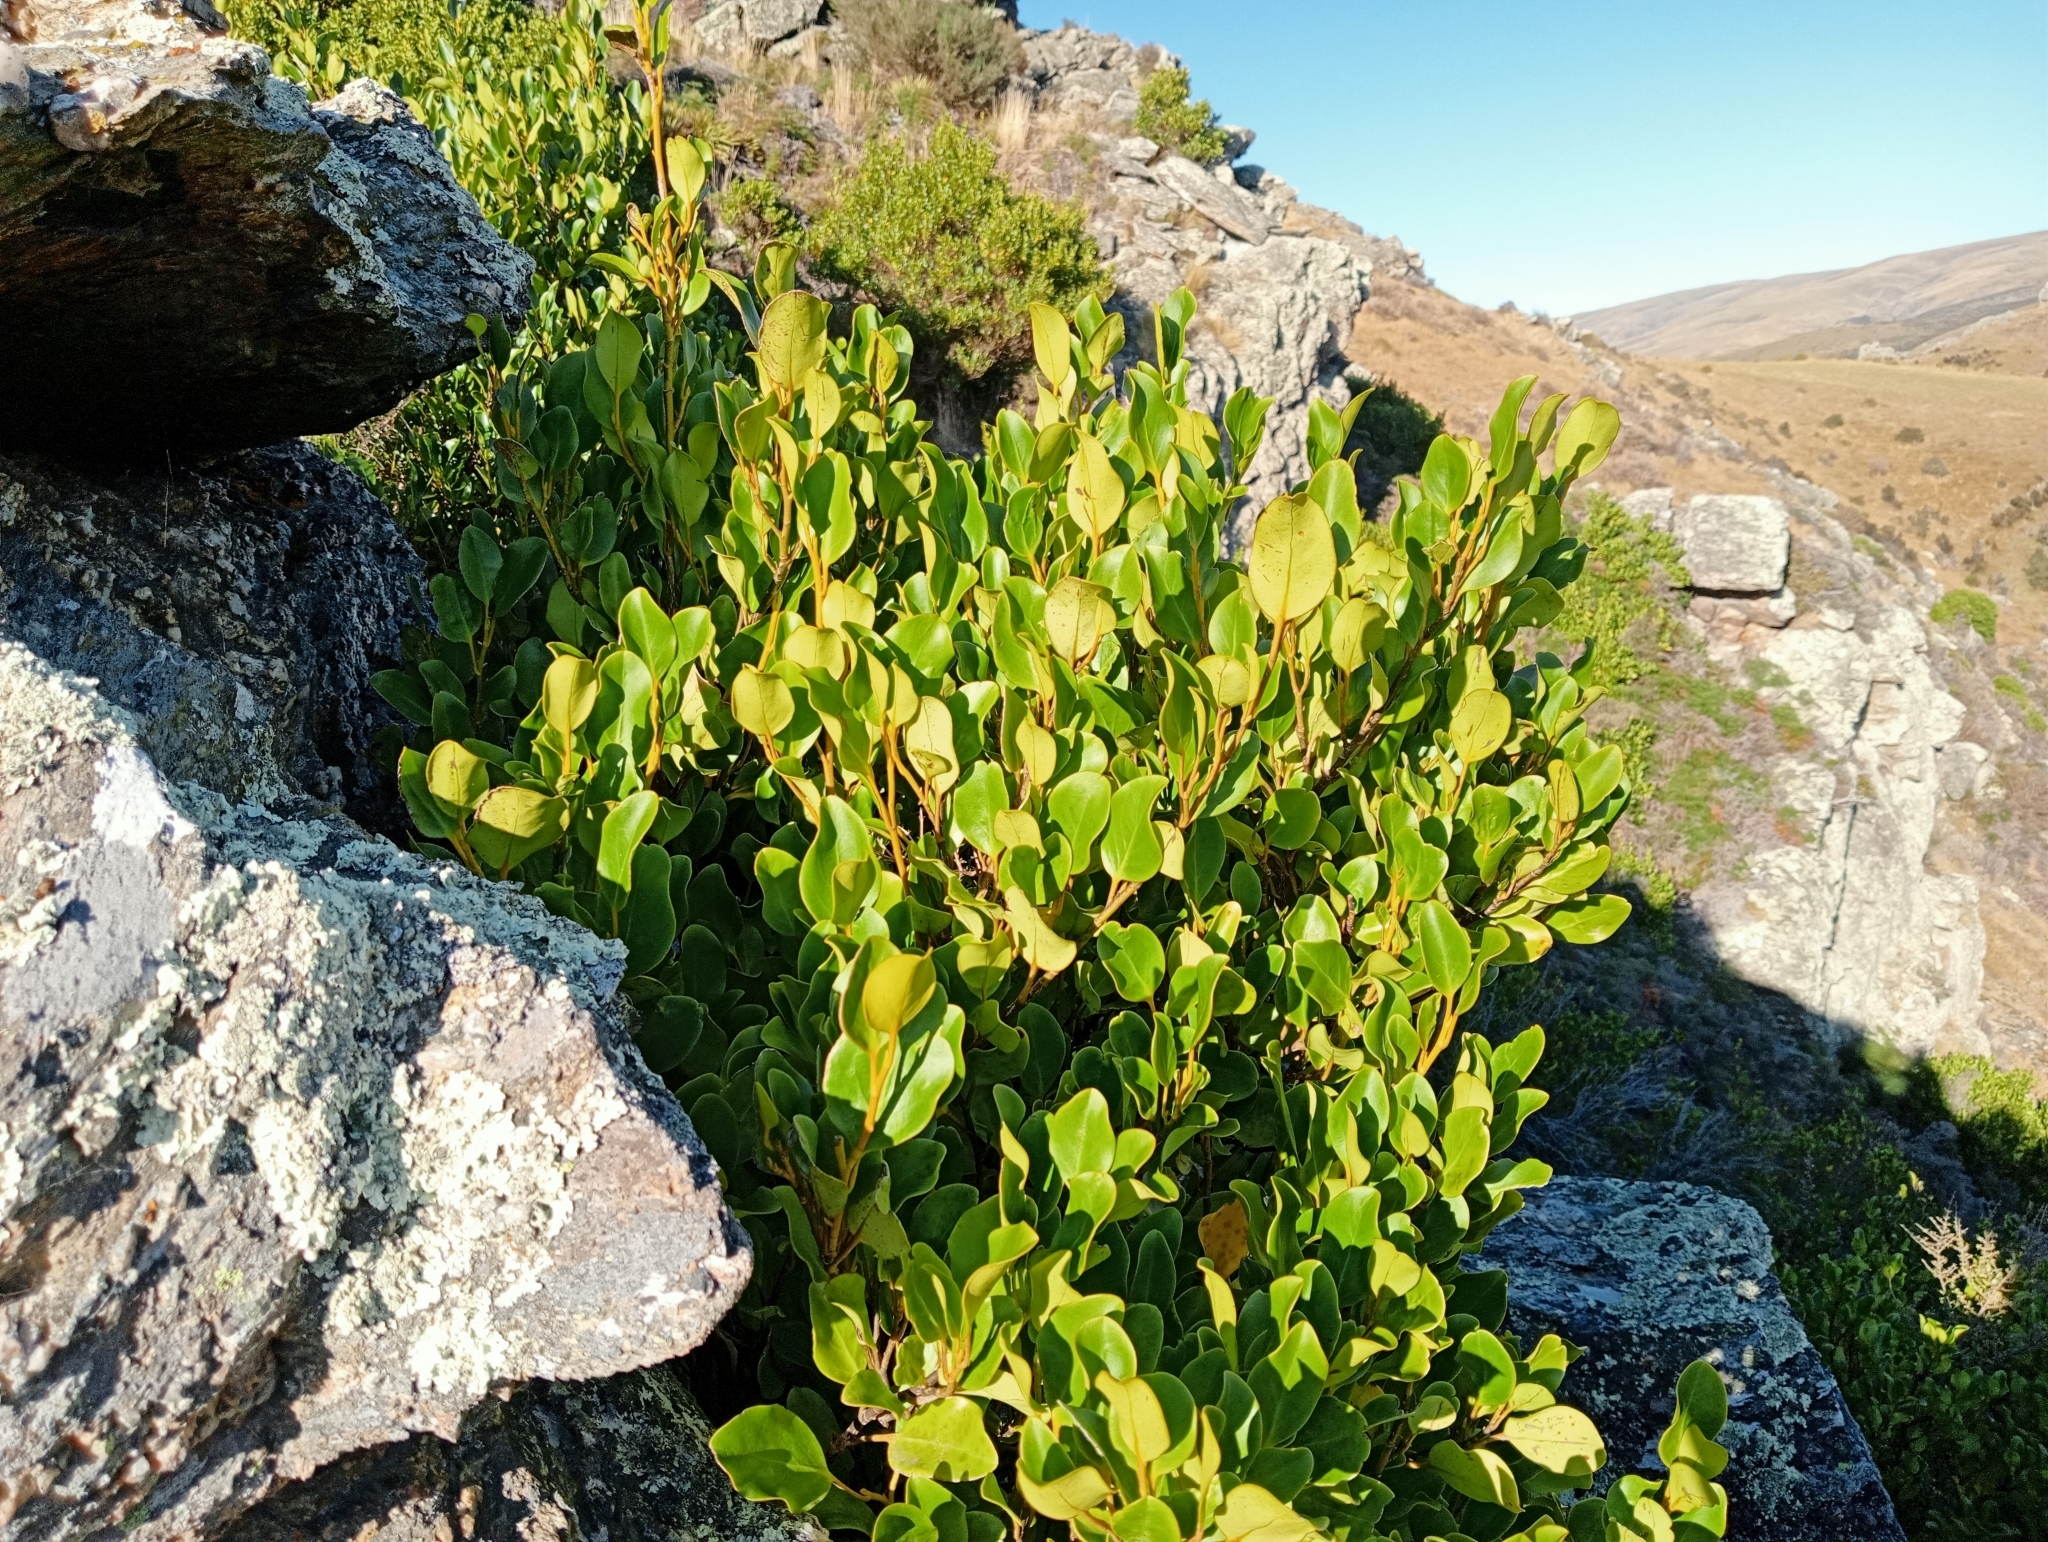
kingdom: Plantae
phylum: Tracheophyta
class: Magnoliopsida
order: Apiales
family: Griseliniaceae
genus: Griselinia
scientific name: Griselinia littoralis
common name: New zealand broadleaf
